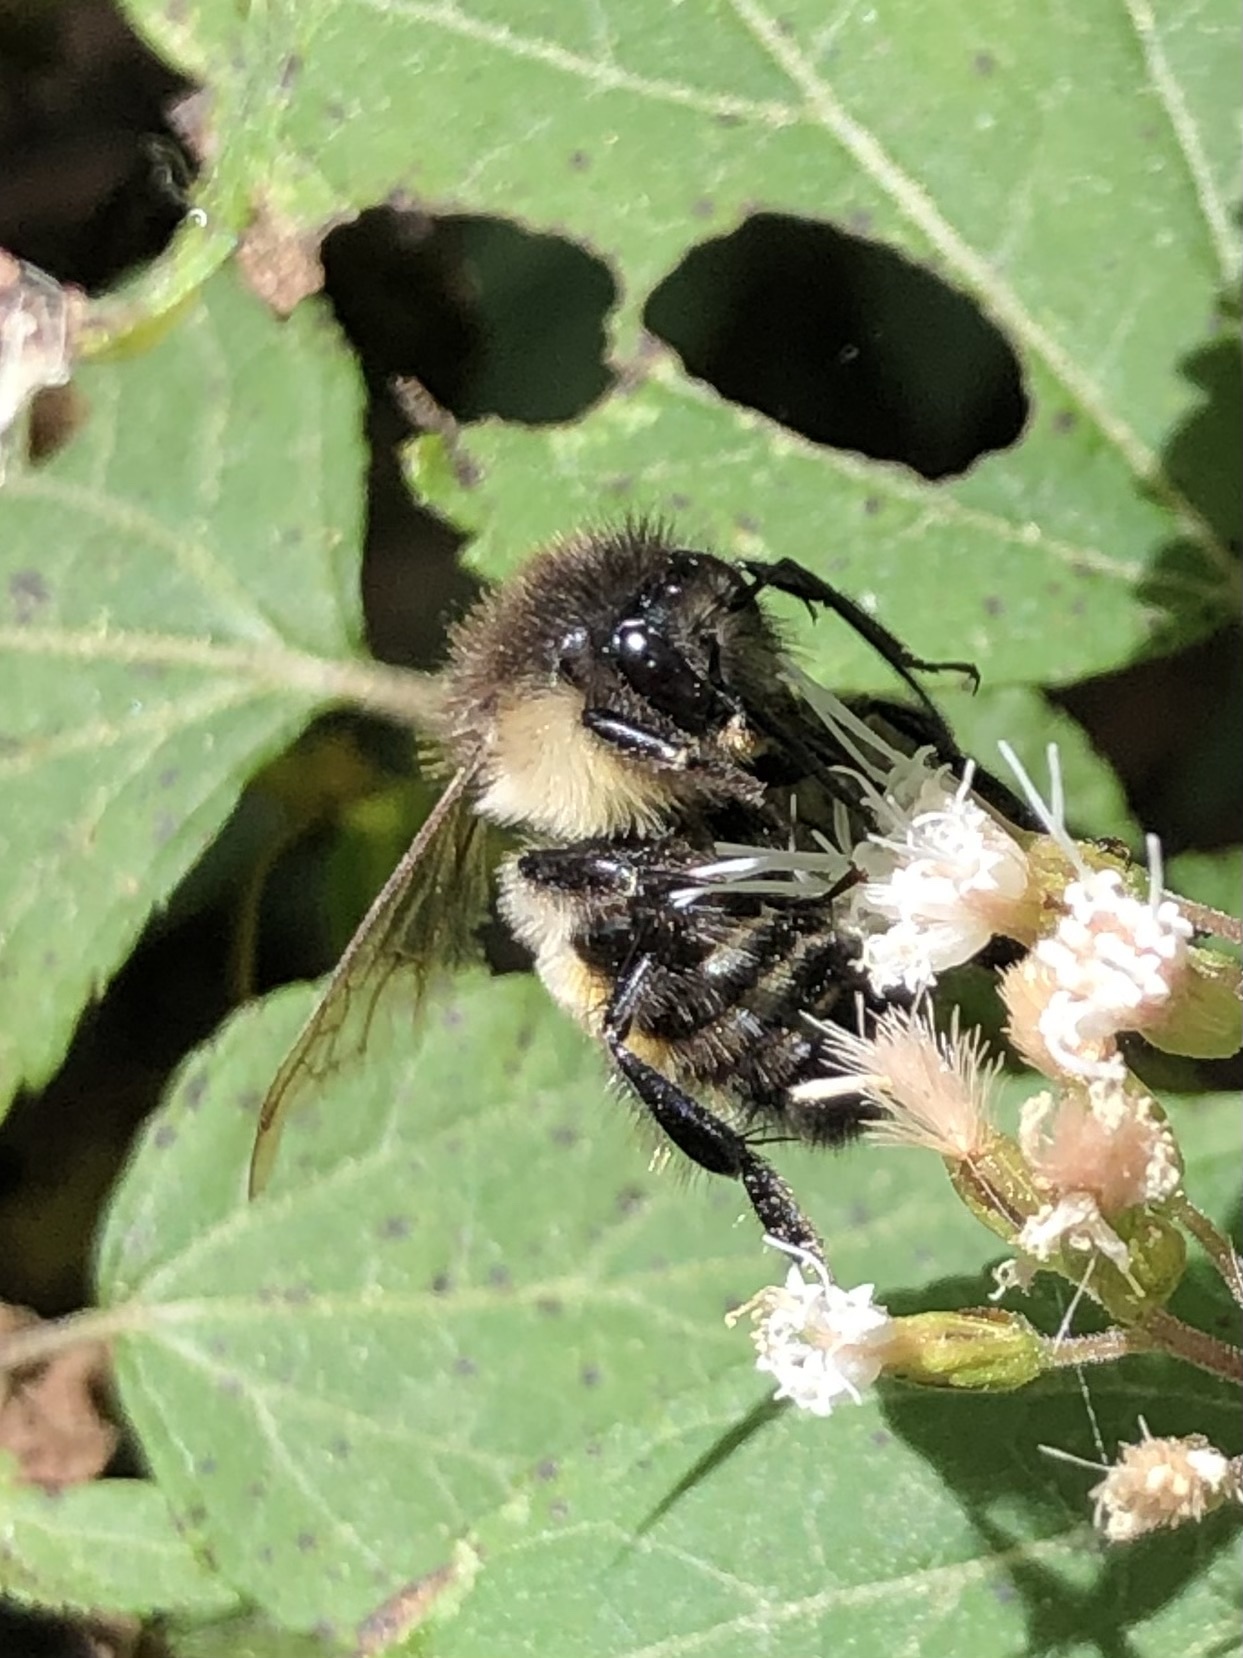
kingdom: Animalia
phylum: Arthropoda
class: Insecta
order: Hymenoptera
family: Apidae
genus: Bombus
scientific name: Bombus ephippiatus
